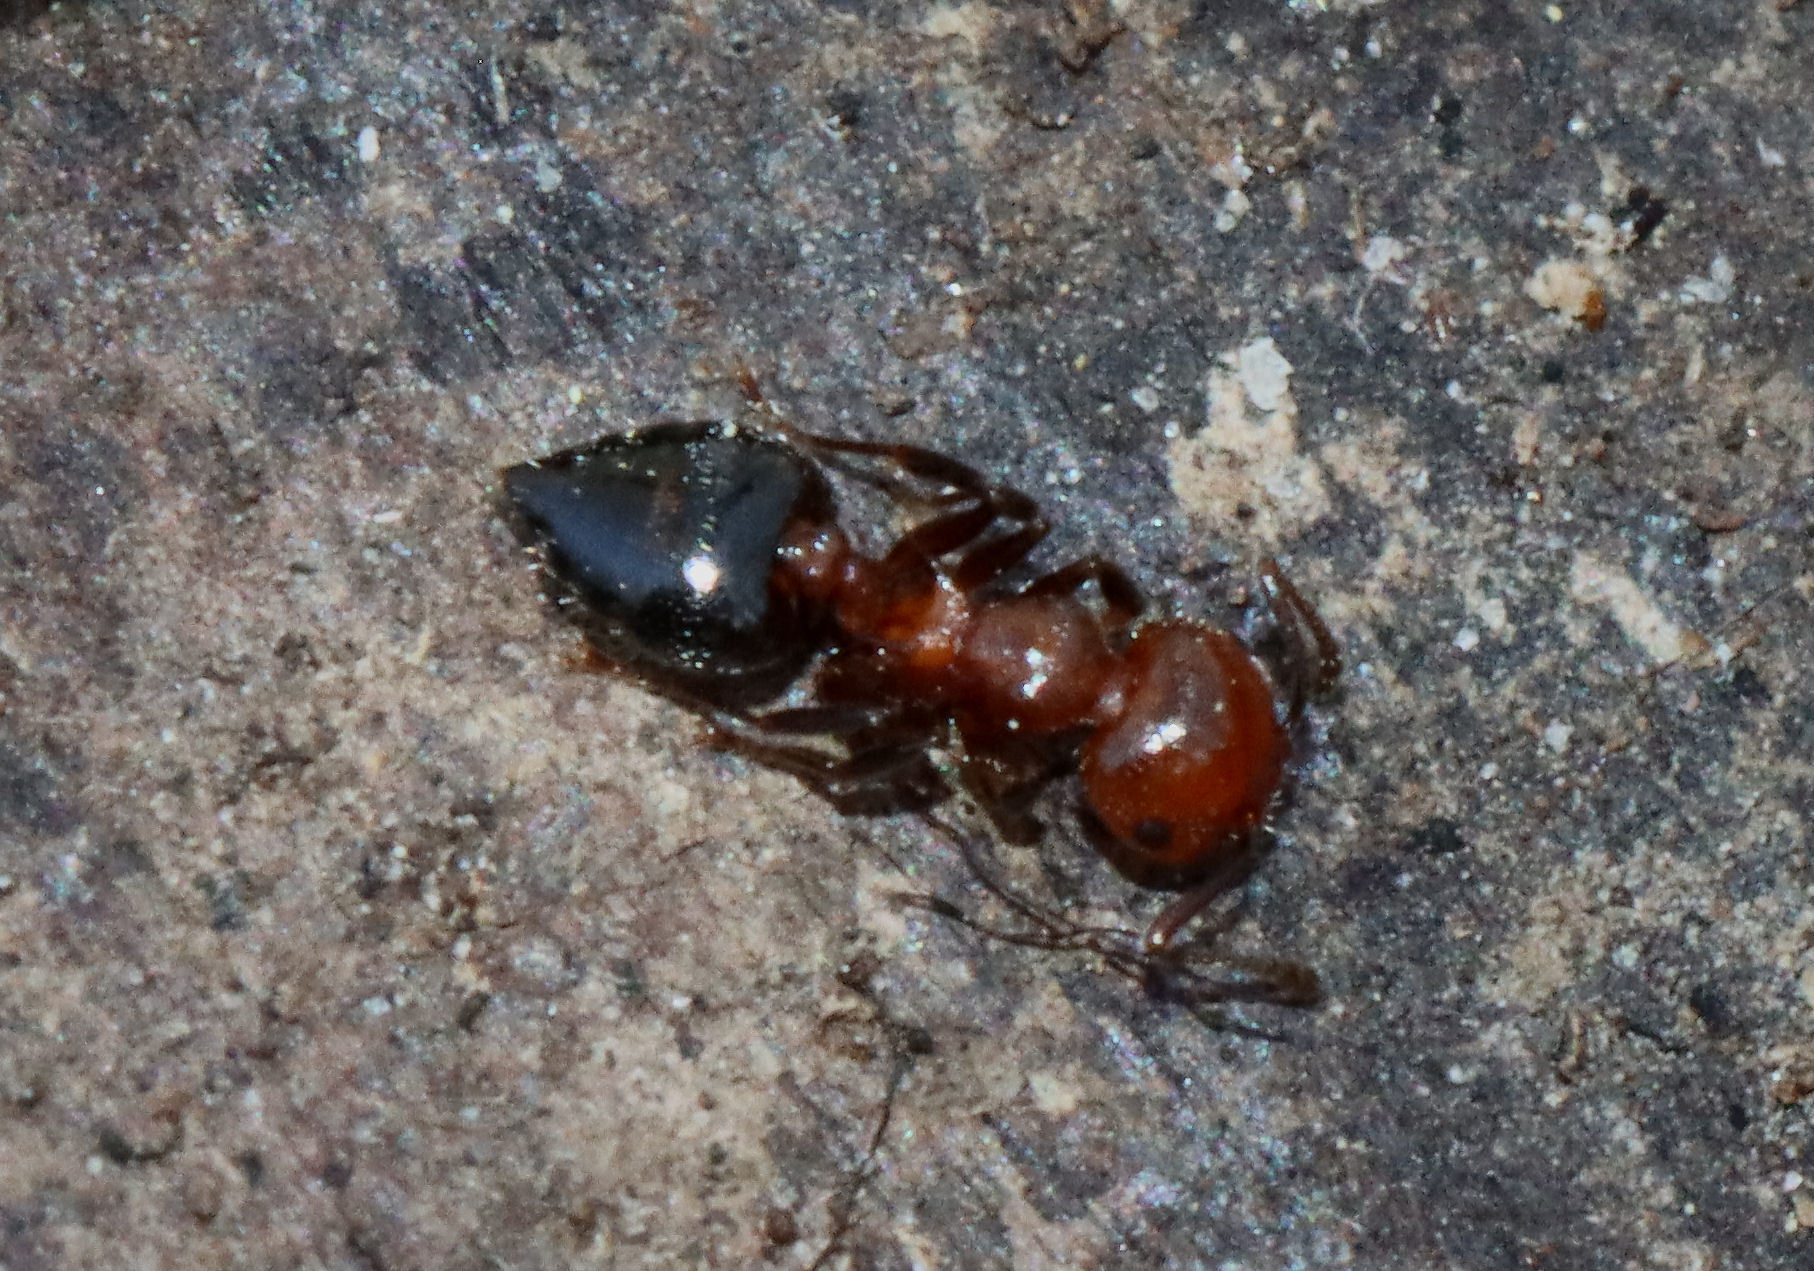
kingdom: Animalia
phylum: Arthropoda
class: Insecta
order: Hymenoptera
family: Formicidae
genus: Crematogaster
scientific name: Crematogaster laeviuscula
